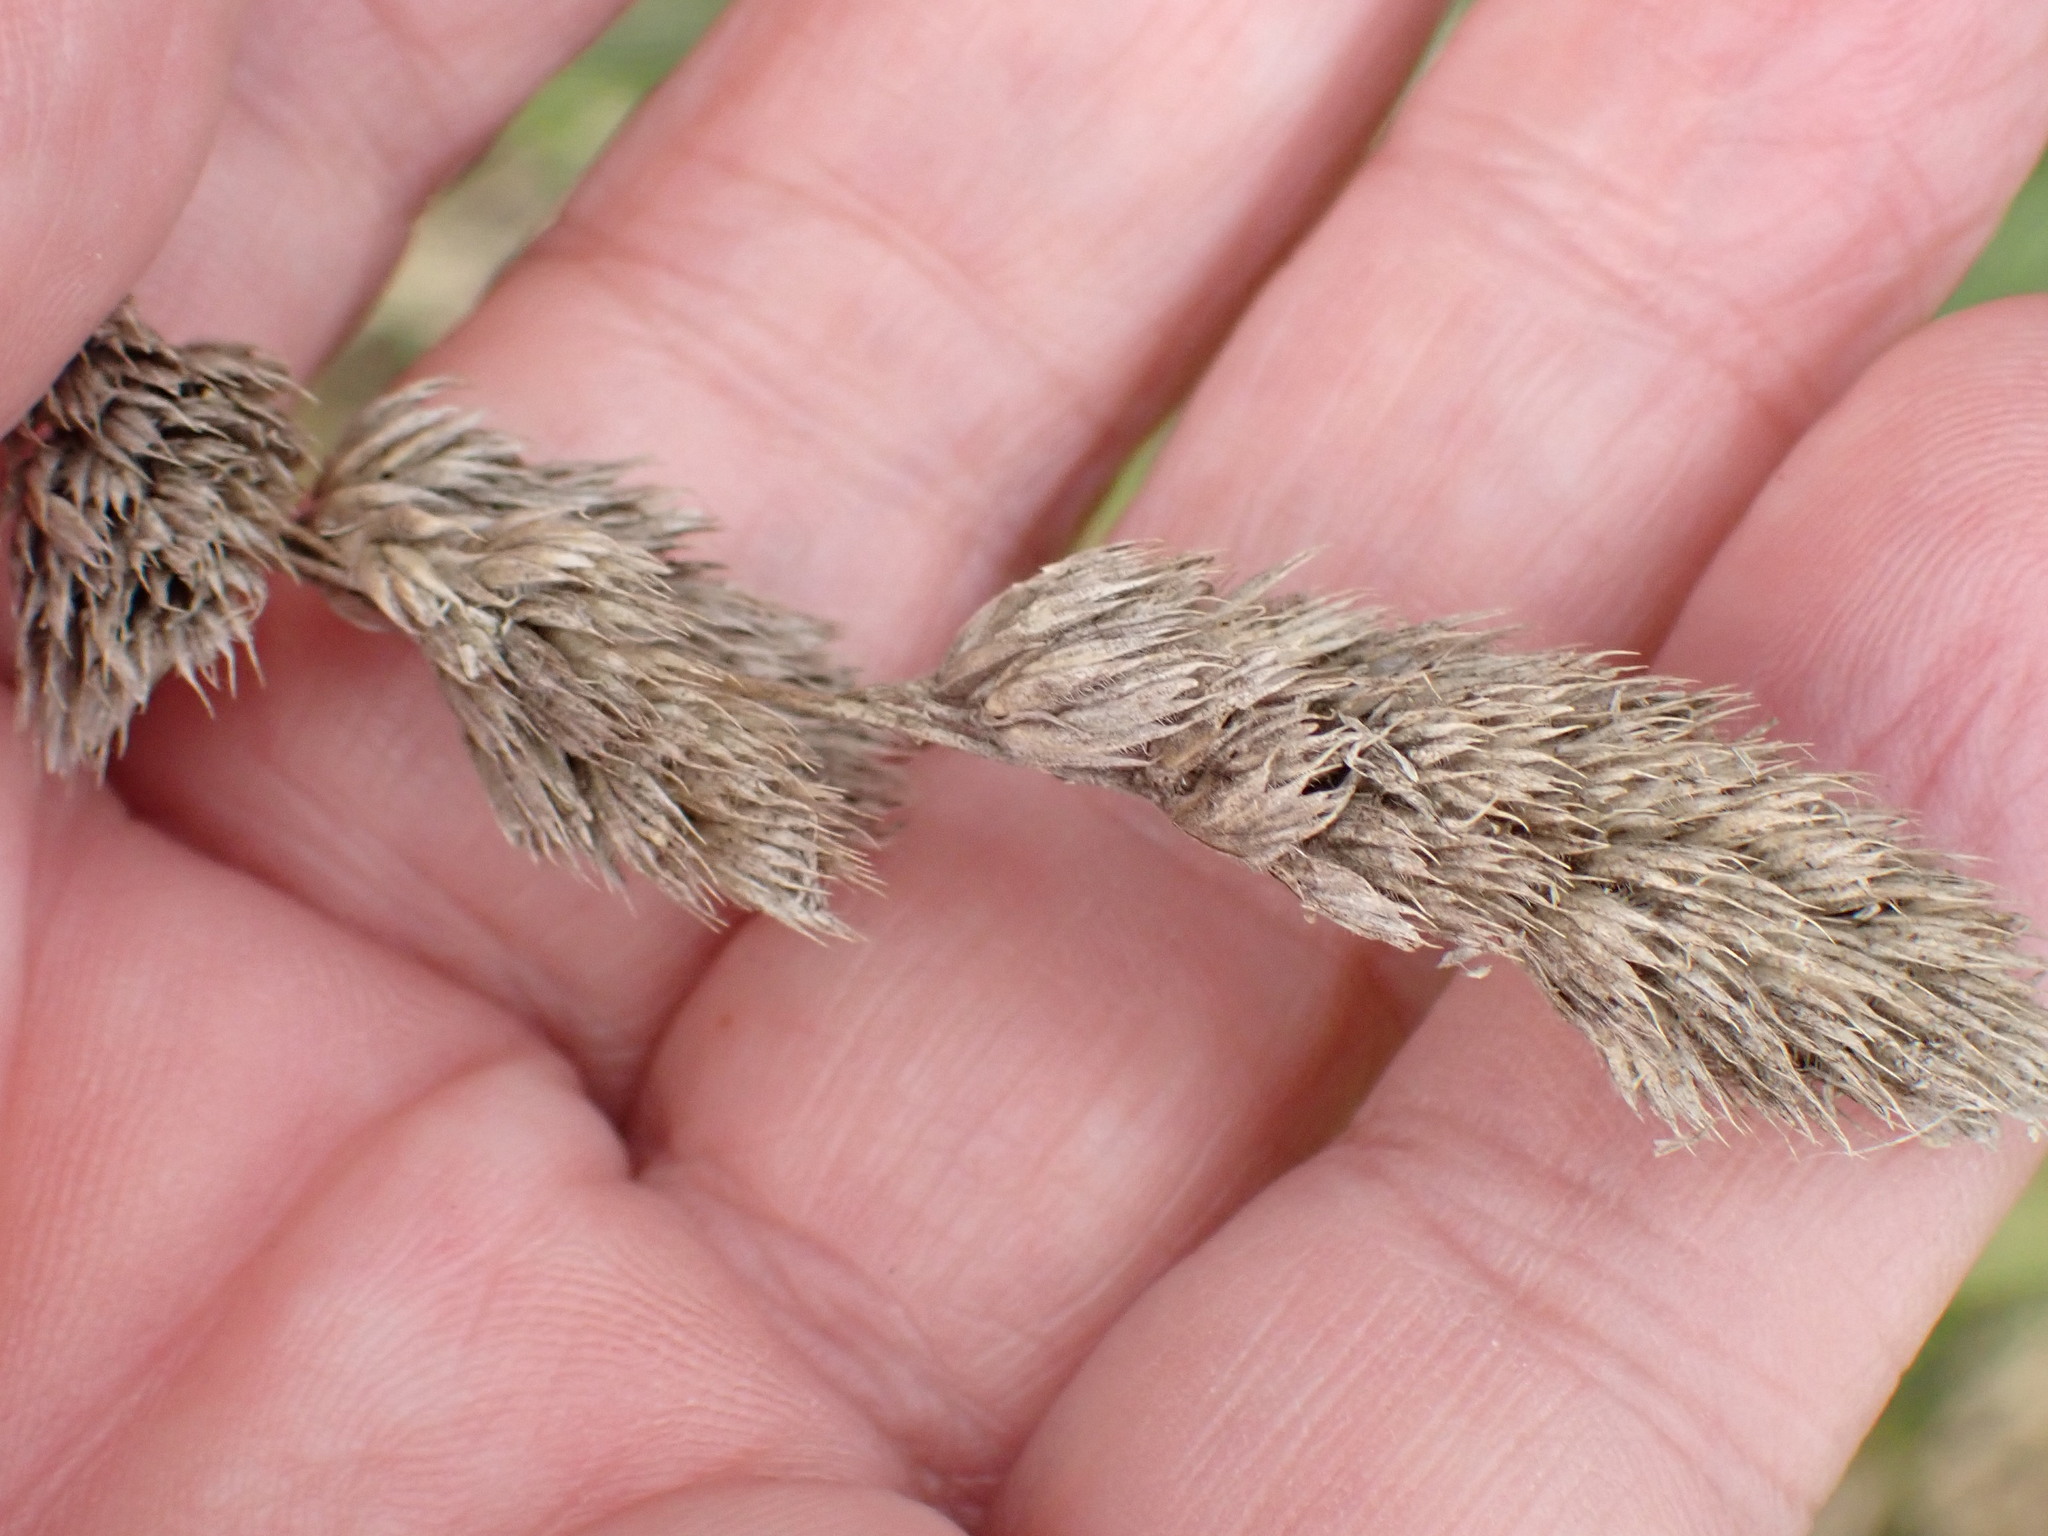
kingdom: Plantae
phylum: Tracheophyta
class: Liliopsida
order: Poales
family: Poaceae
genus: Dactylis
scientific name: Dactylis glomerata
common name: Orchardgrass
